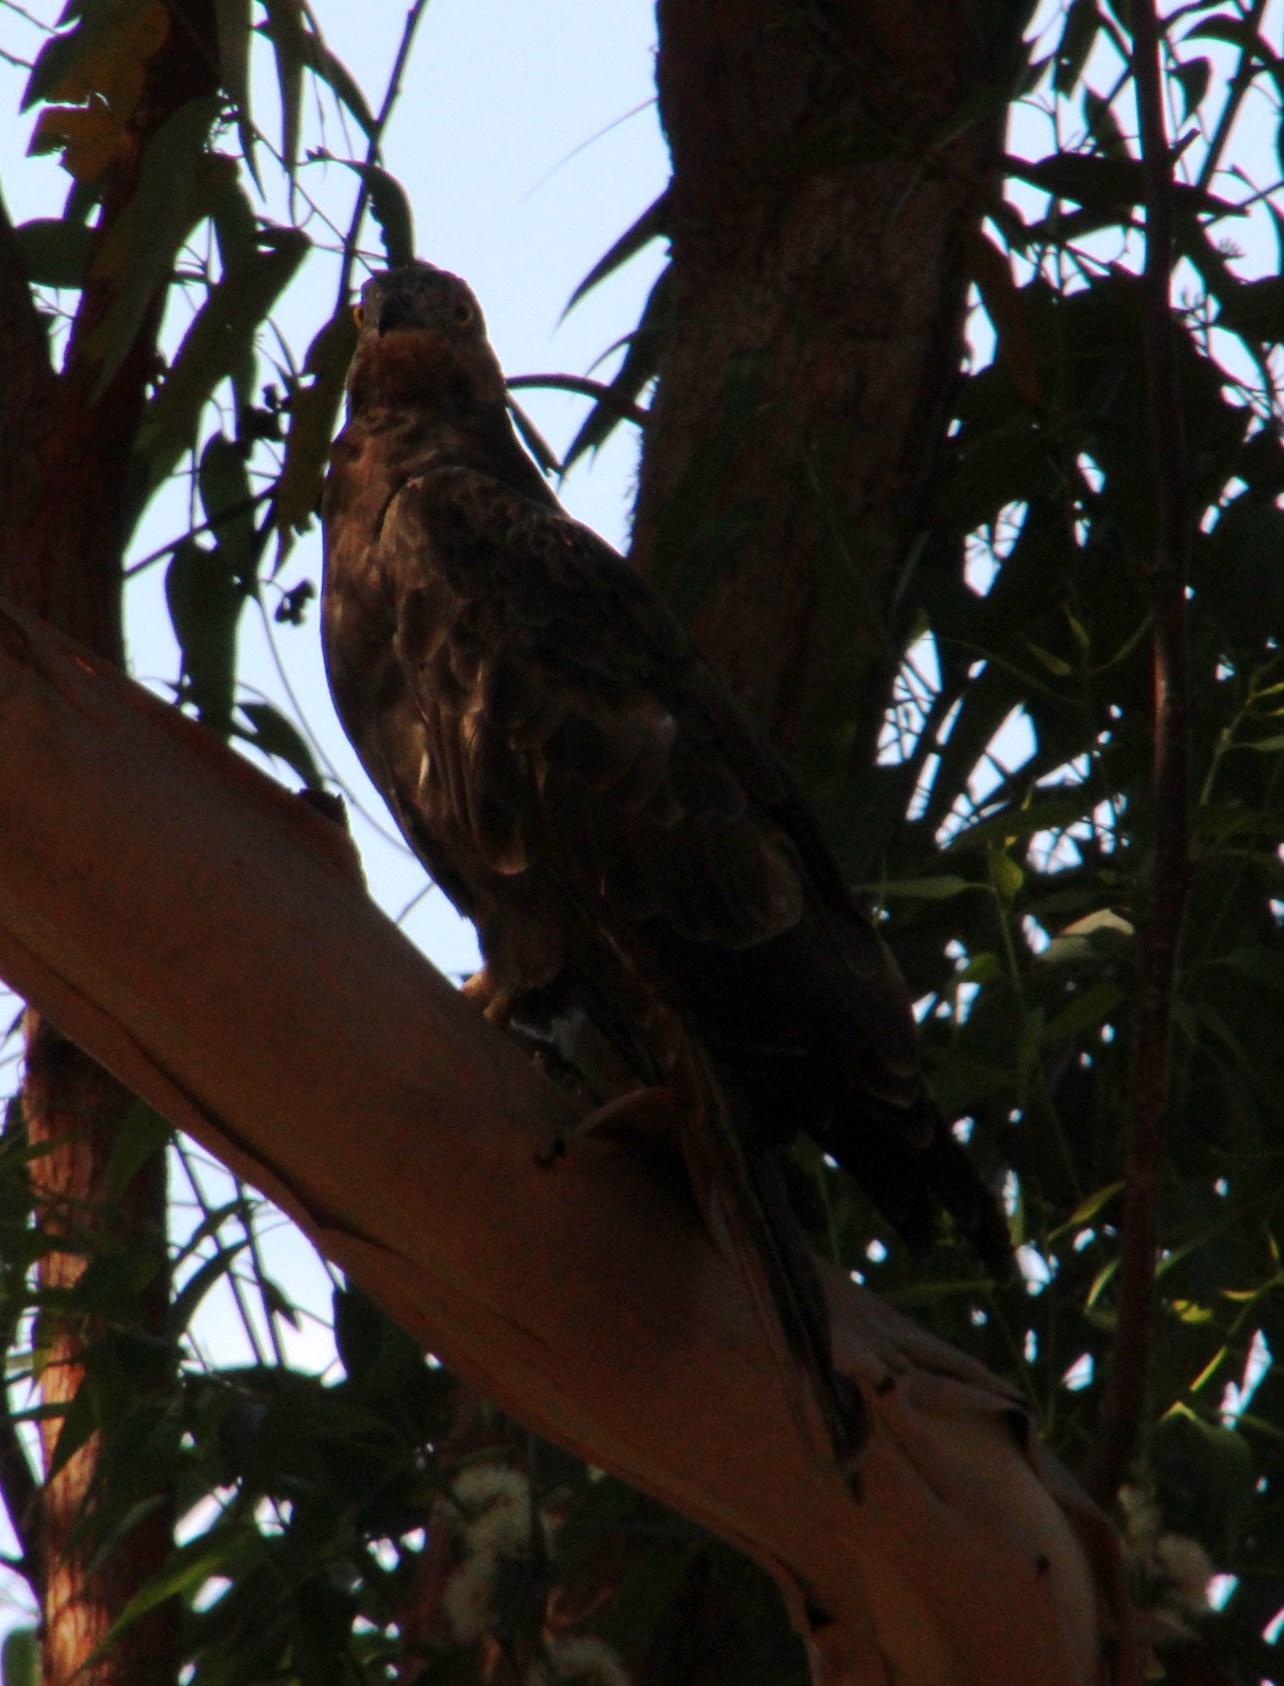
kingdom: Animalia
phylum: Chordata
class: Aves
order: Accipitriformes
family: Accipitridae
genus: Pernis
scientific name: Pernis apivorus
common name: European honey buzzard
